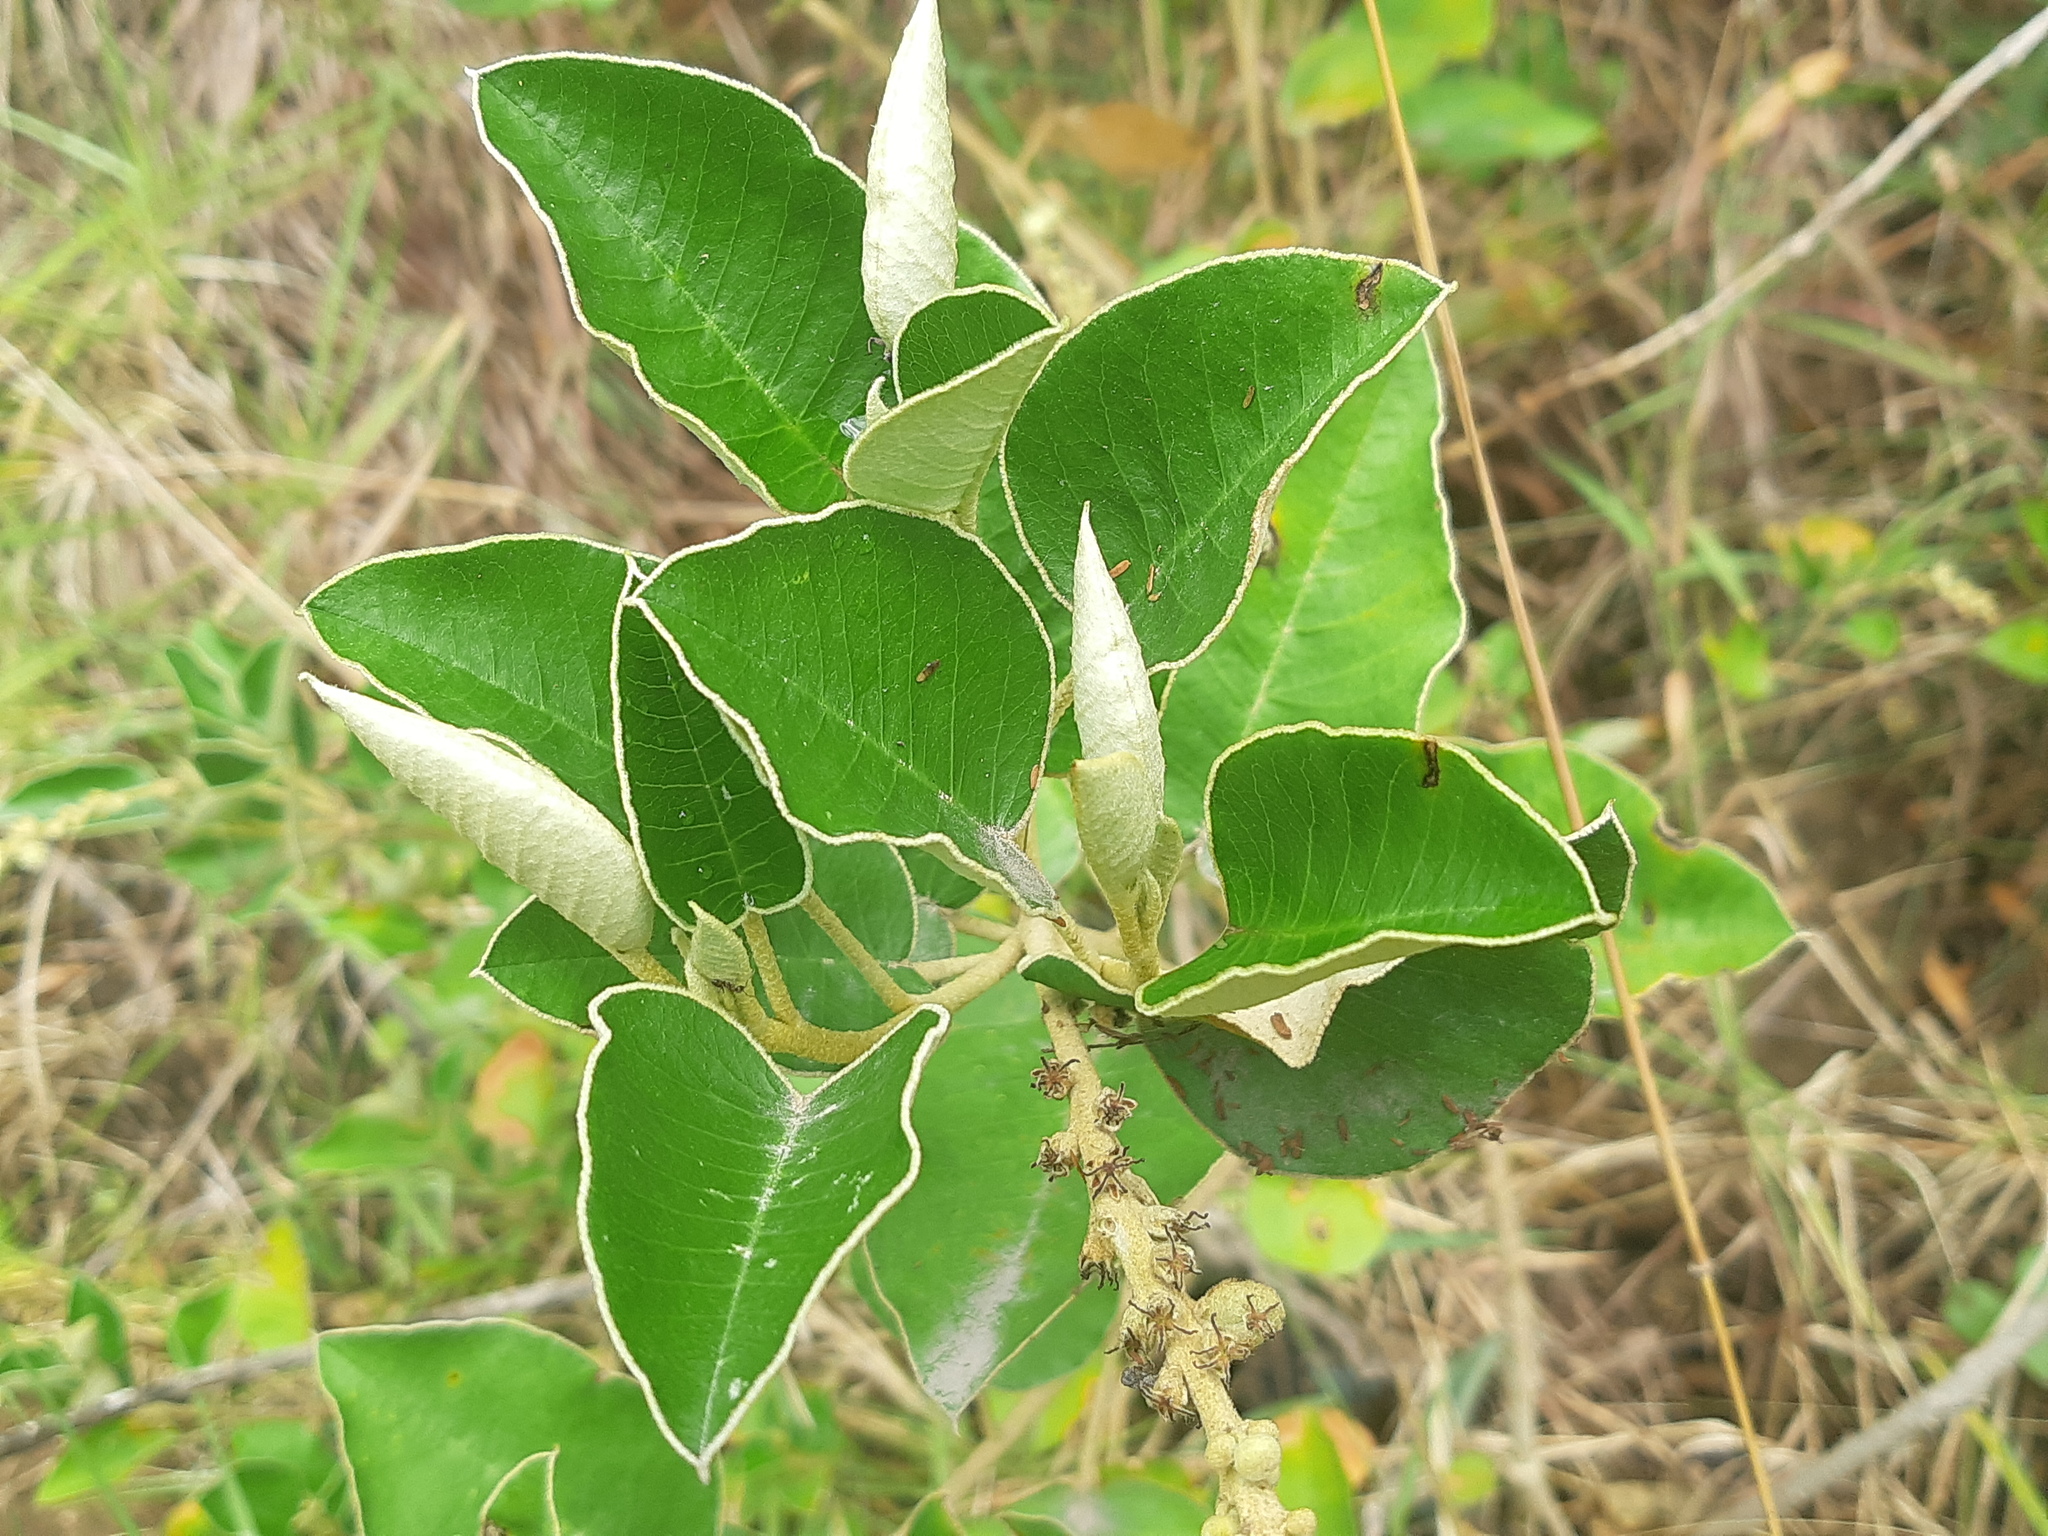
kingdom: Plantae
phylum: Tracheophyta
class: Magnoliopsida
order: Malpighiales
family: Euphorbiaceae
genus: Croton
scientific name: Croton ferrugineus
